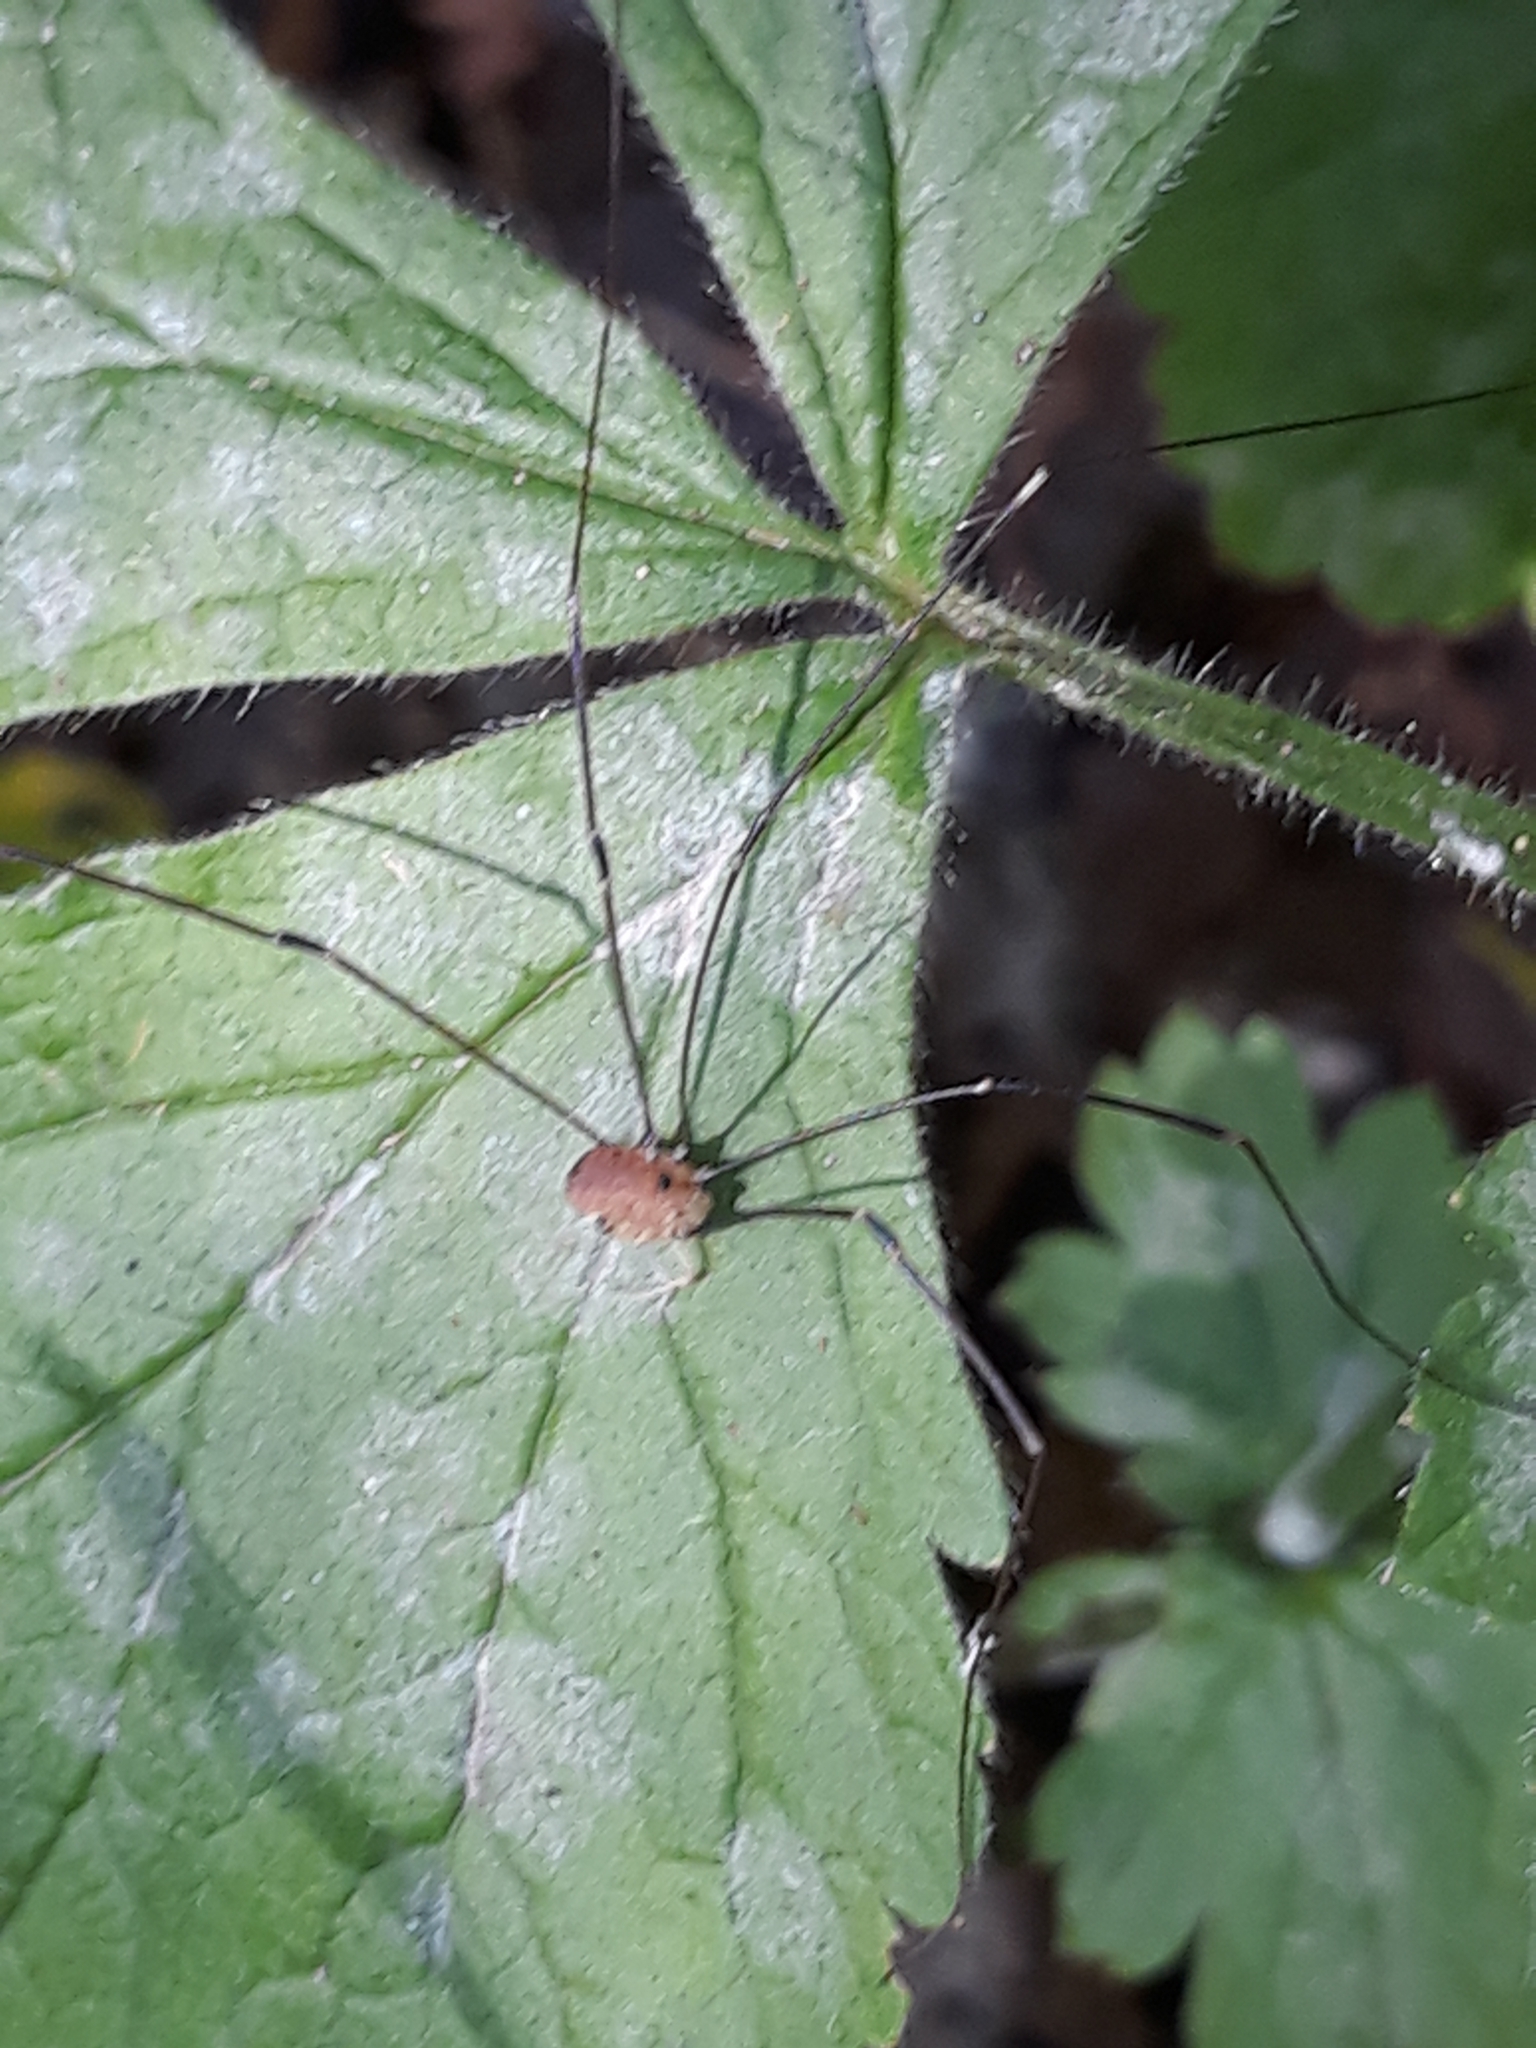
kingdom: Animalia
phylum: Arthropoda
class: Arachnida
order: Opiliones
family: Sclerosomatidae
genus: Leiobunum
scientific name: Leiobunum rotundum
